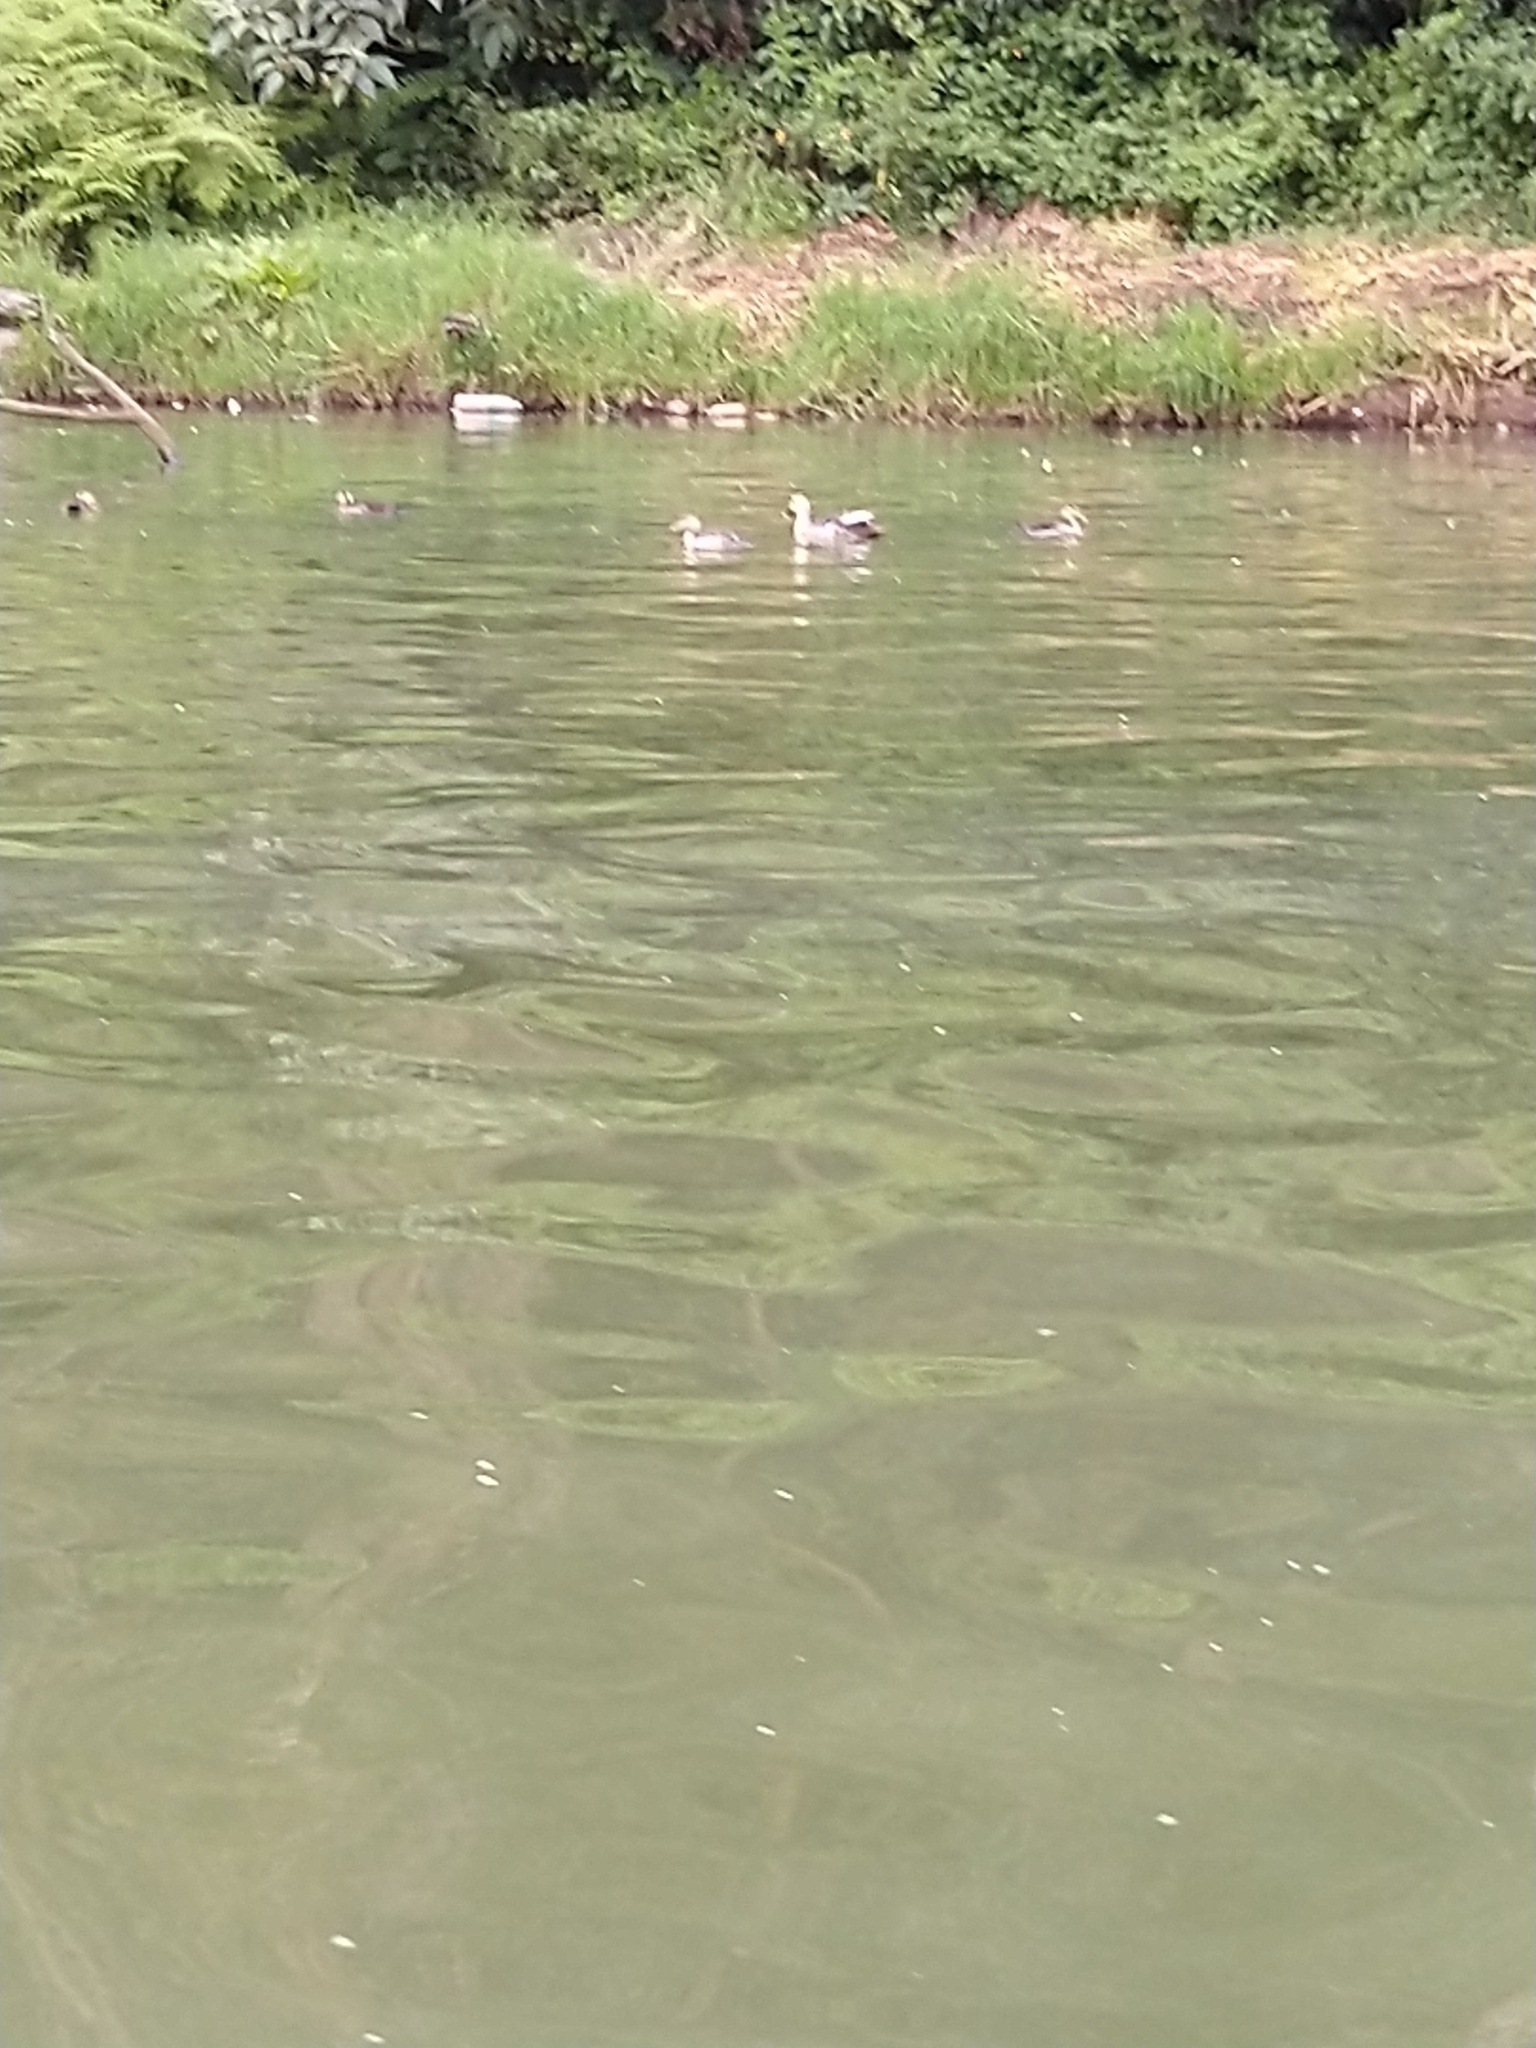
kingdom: Animalia
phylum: Chordata
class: Aves
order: Anseriformes
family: Anatidae
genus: Anas
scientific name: Anas poecilorhyncha
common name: Indian spot-billed duck
